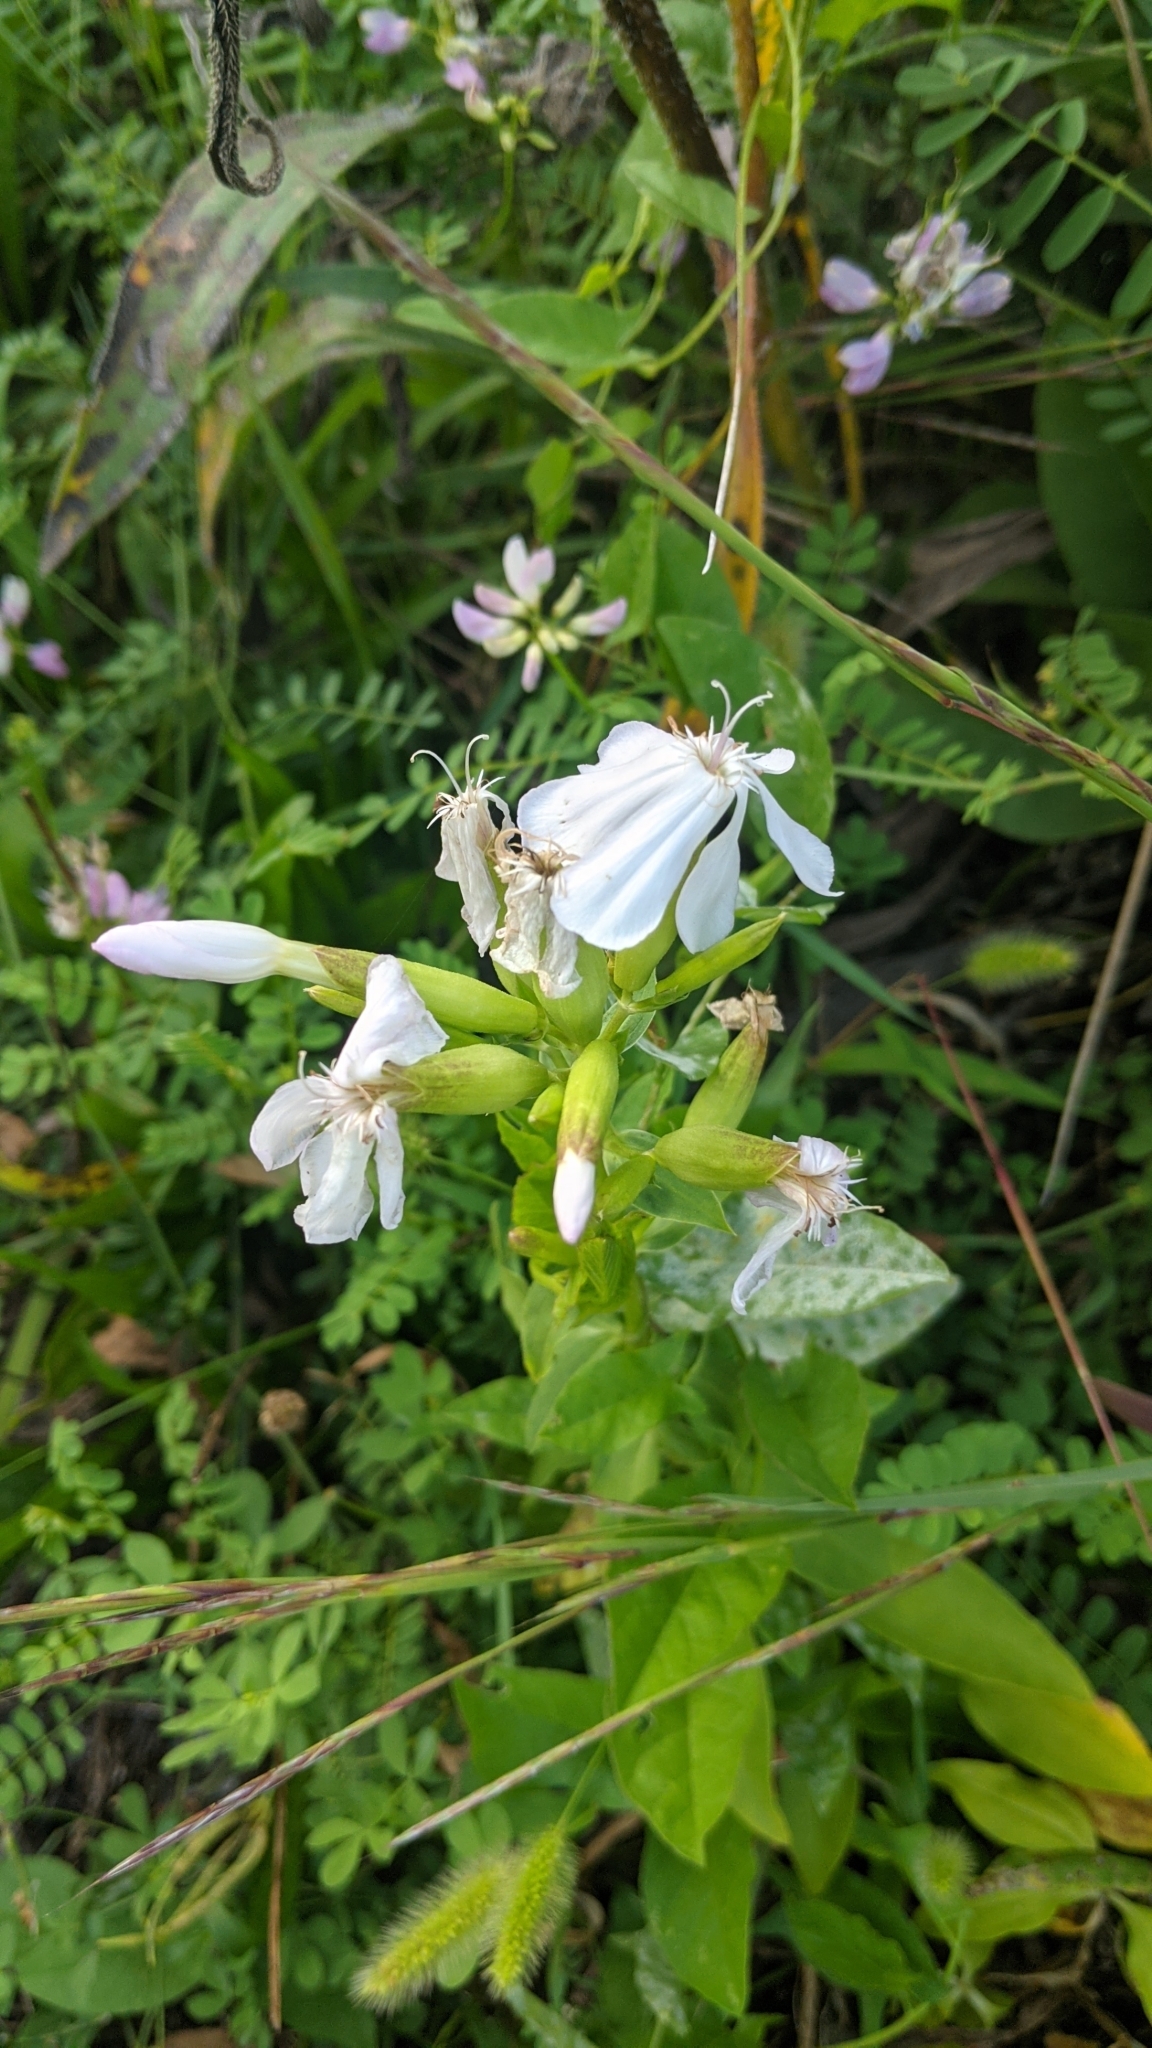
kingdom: Plantae
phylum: Tracheophyta
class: Magnoliopsida
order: Caryophyllales
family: Caryophyllaceae
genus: Saponaria
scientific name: Saponaria officinalis
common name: Soapwort
